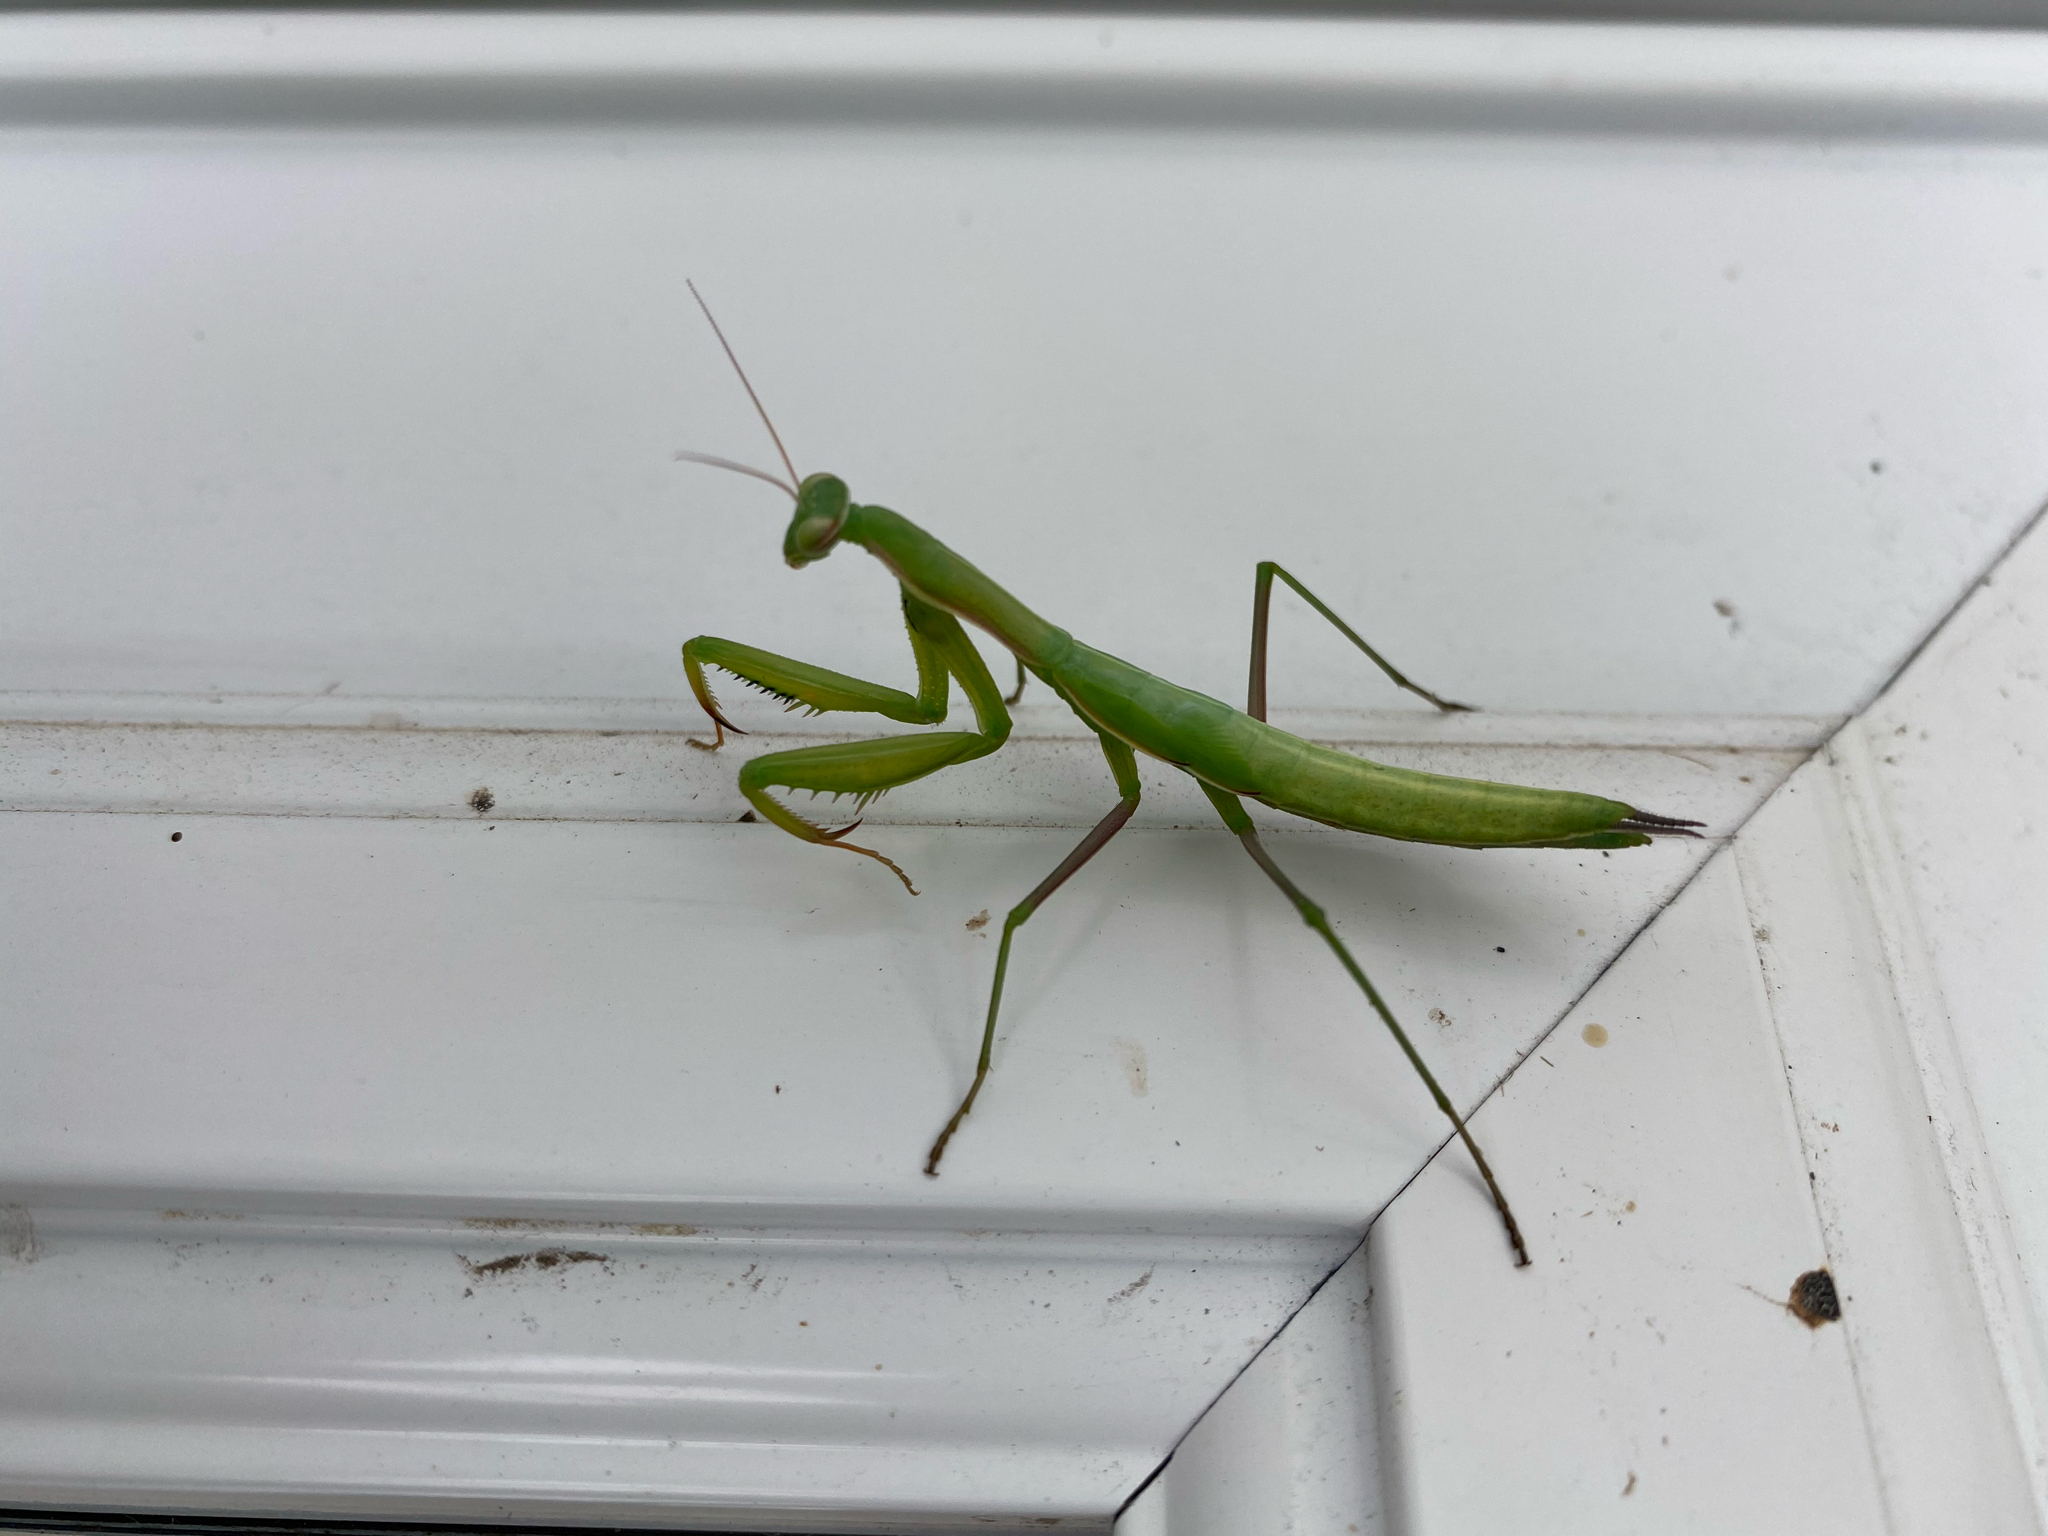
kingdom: Animalia
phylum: Arthropoda
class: Insecta
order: Mantodea
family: Mantidae
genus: Mantis
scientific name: Mantis religiosa
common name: Praying mantis
